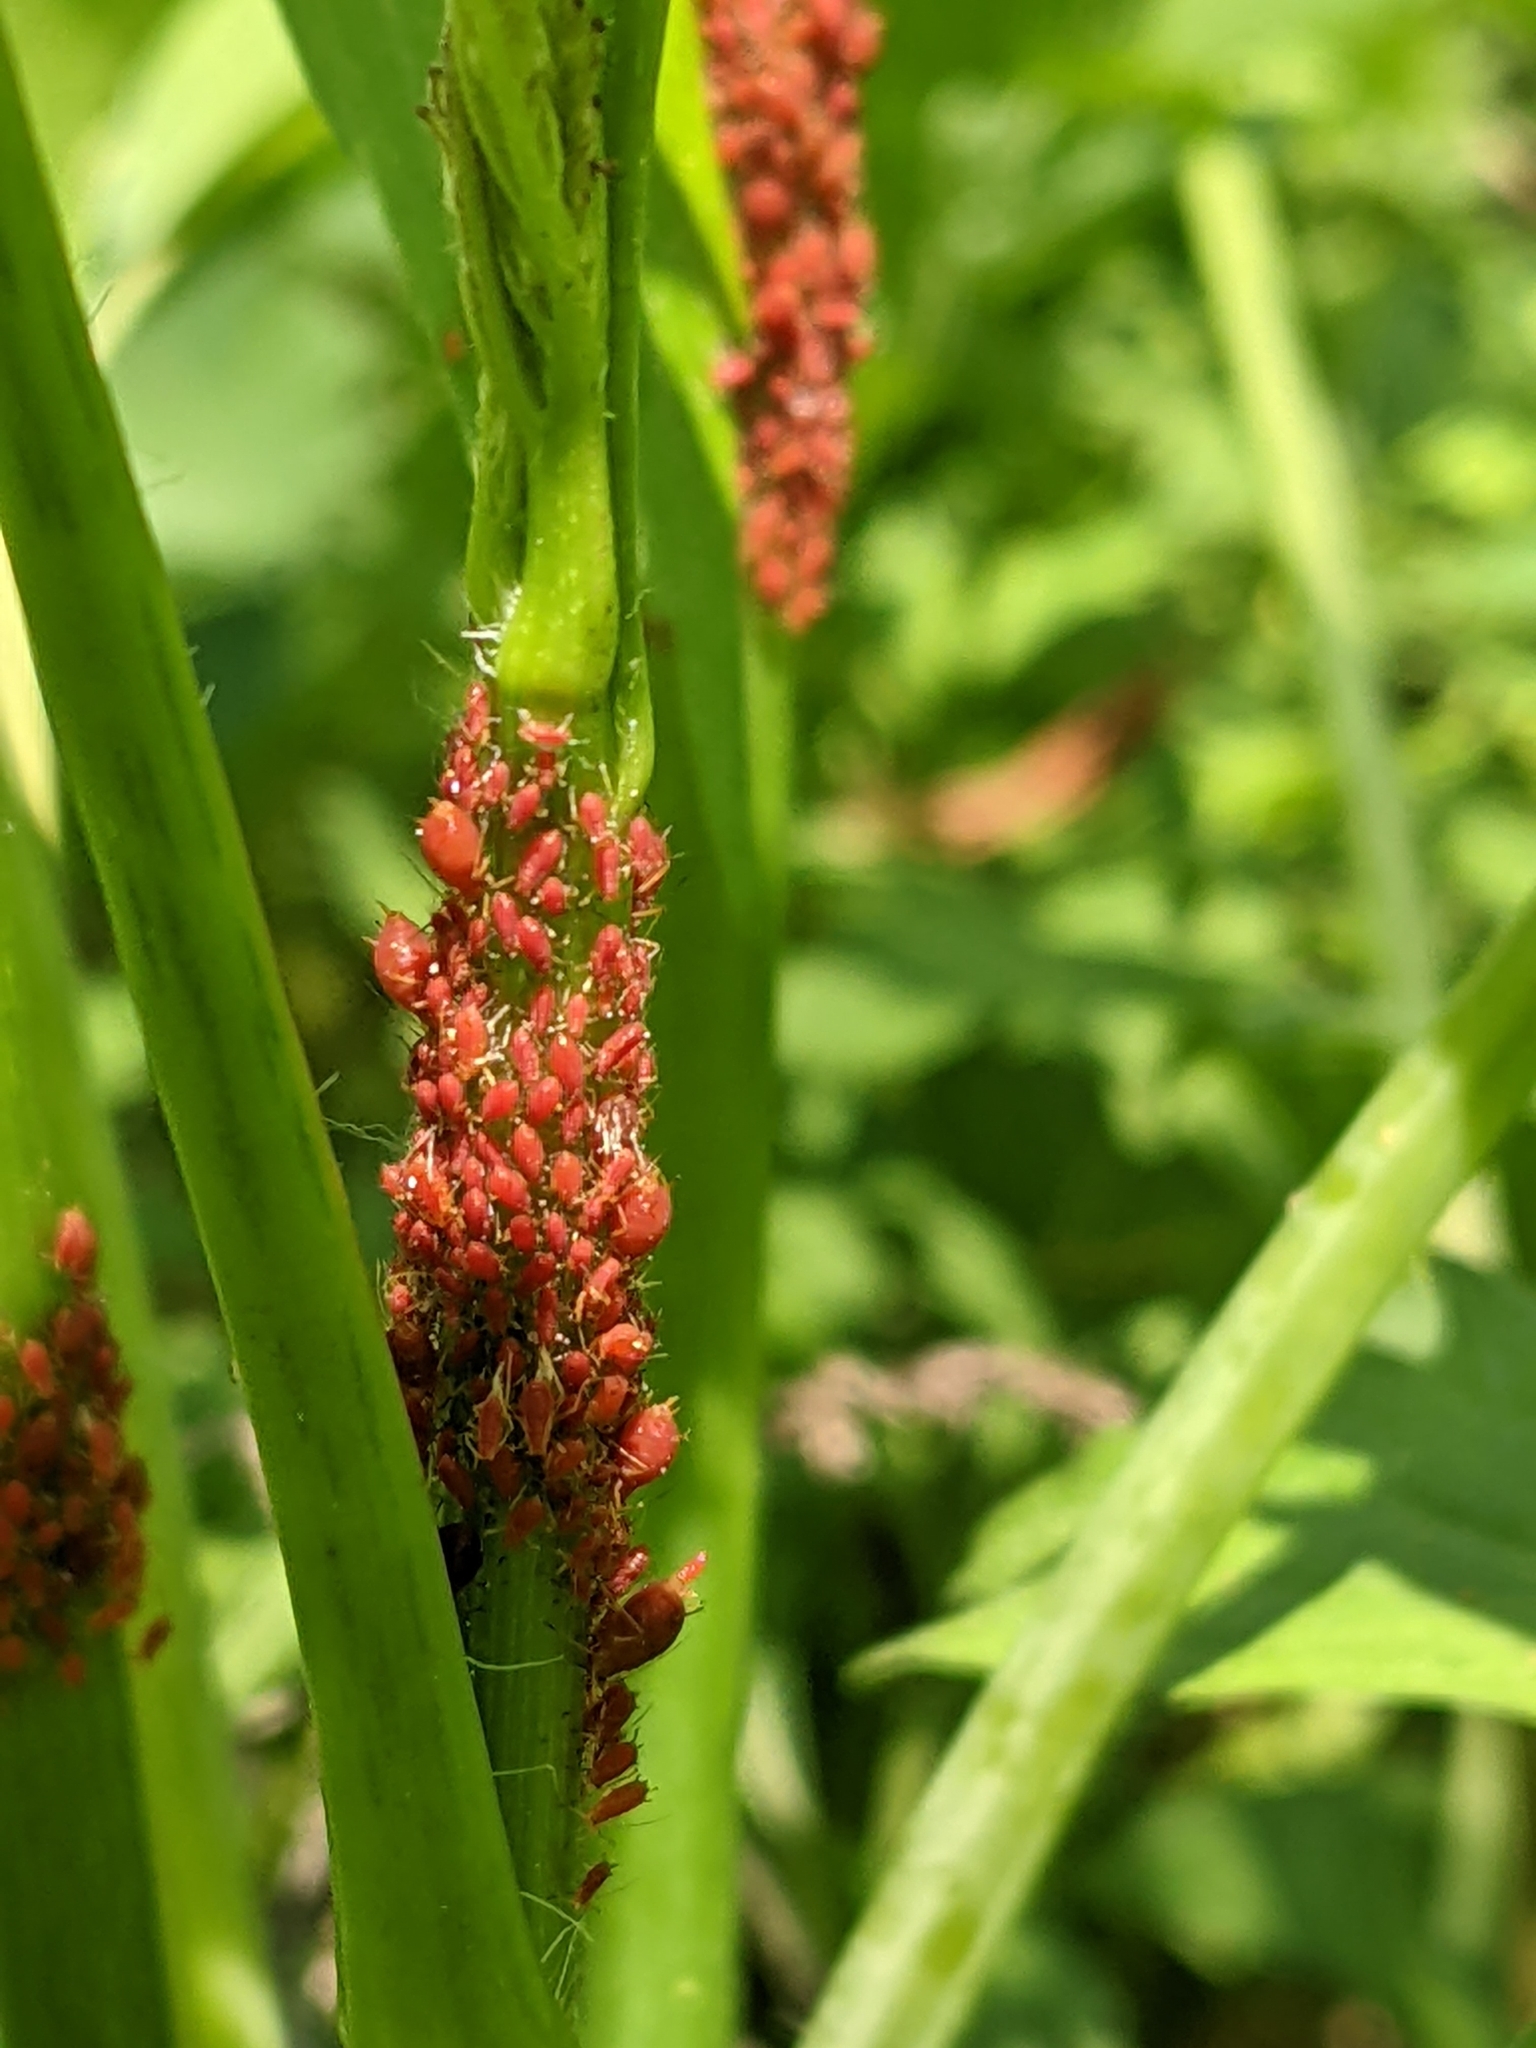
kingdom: Animalia
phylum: Arthropoda
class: Insecta
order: Hemiptera
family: Aphididae
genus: Uroleucon
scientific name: Uroleucon
